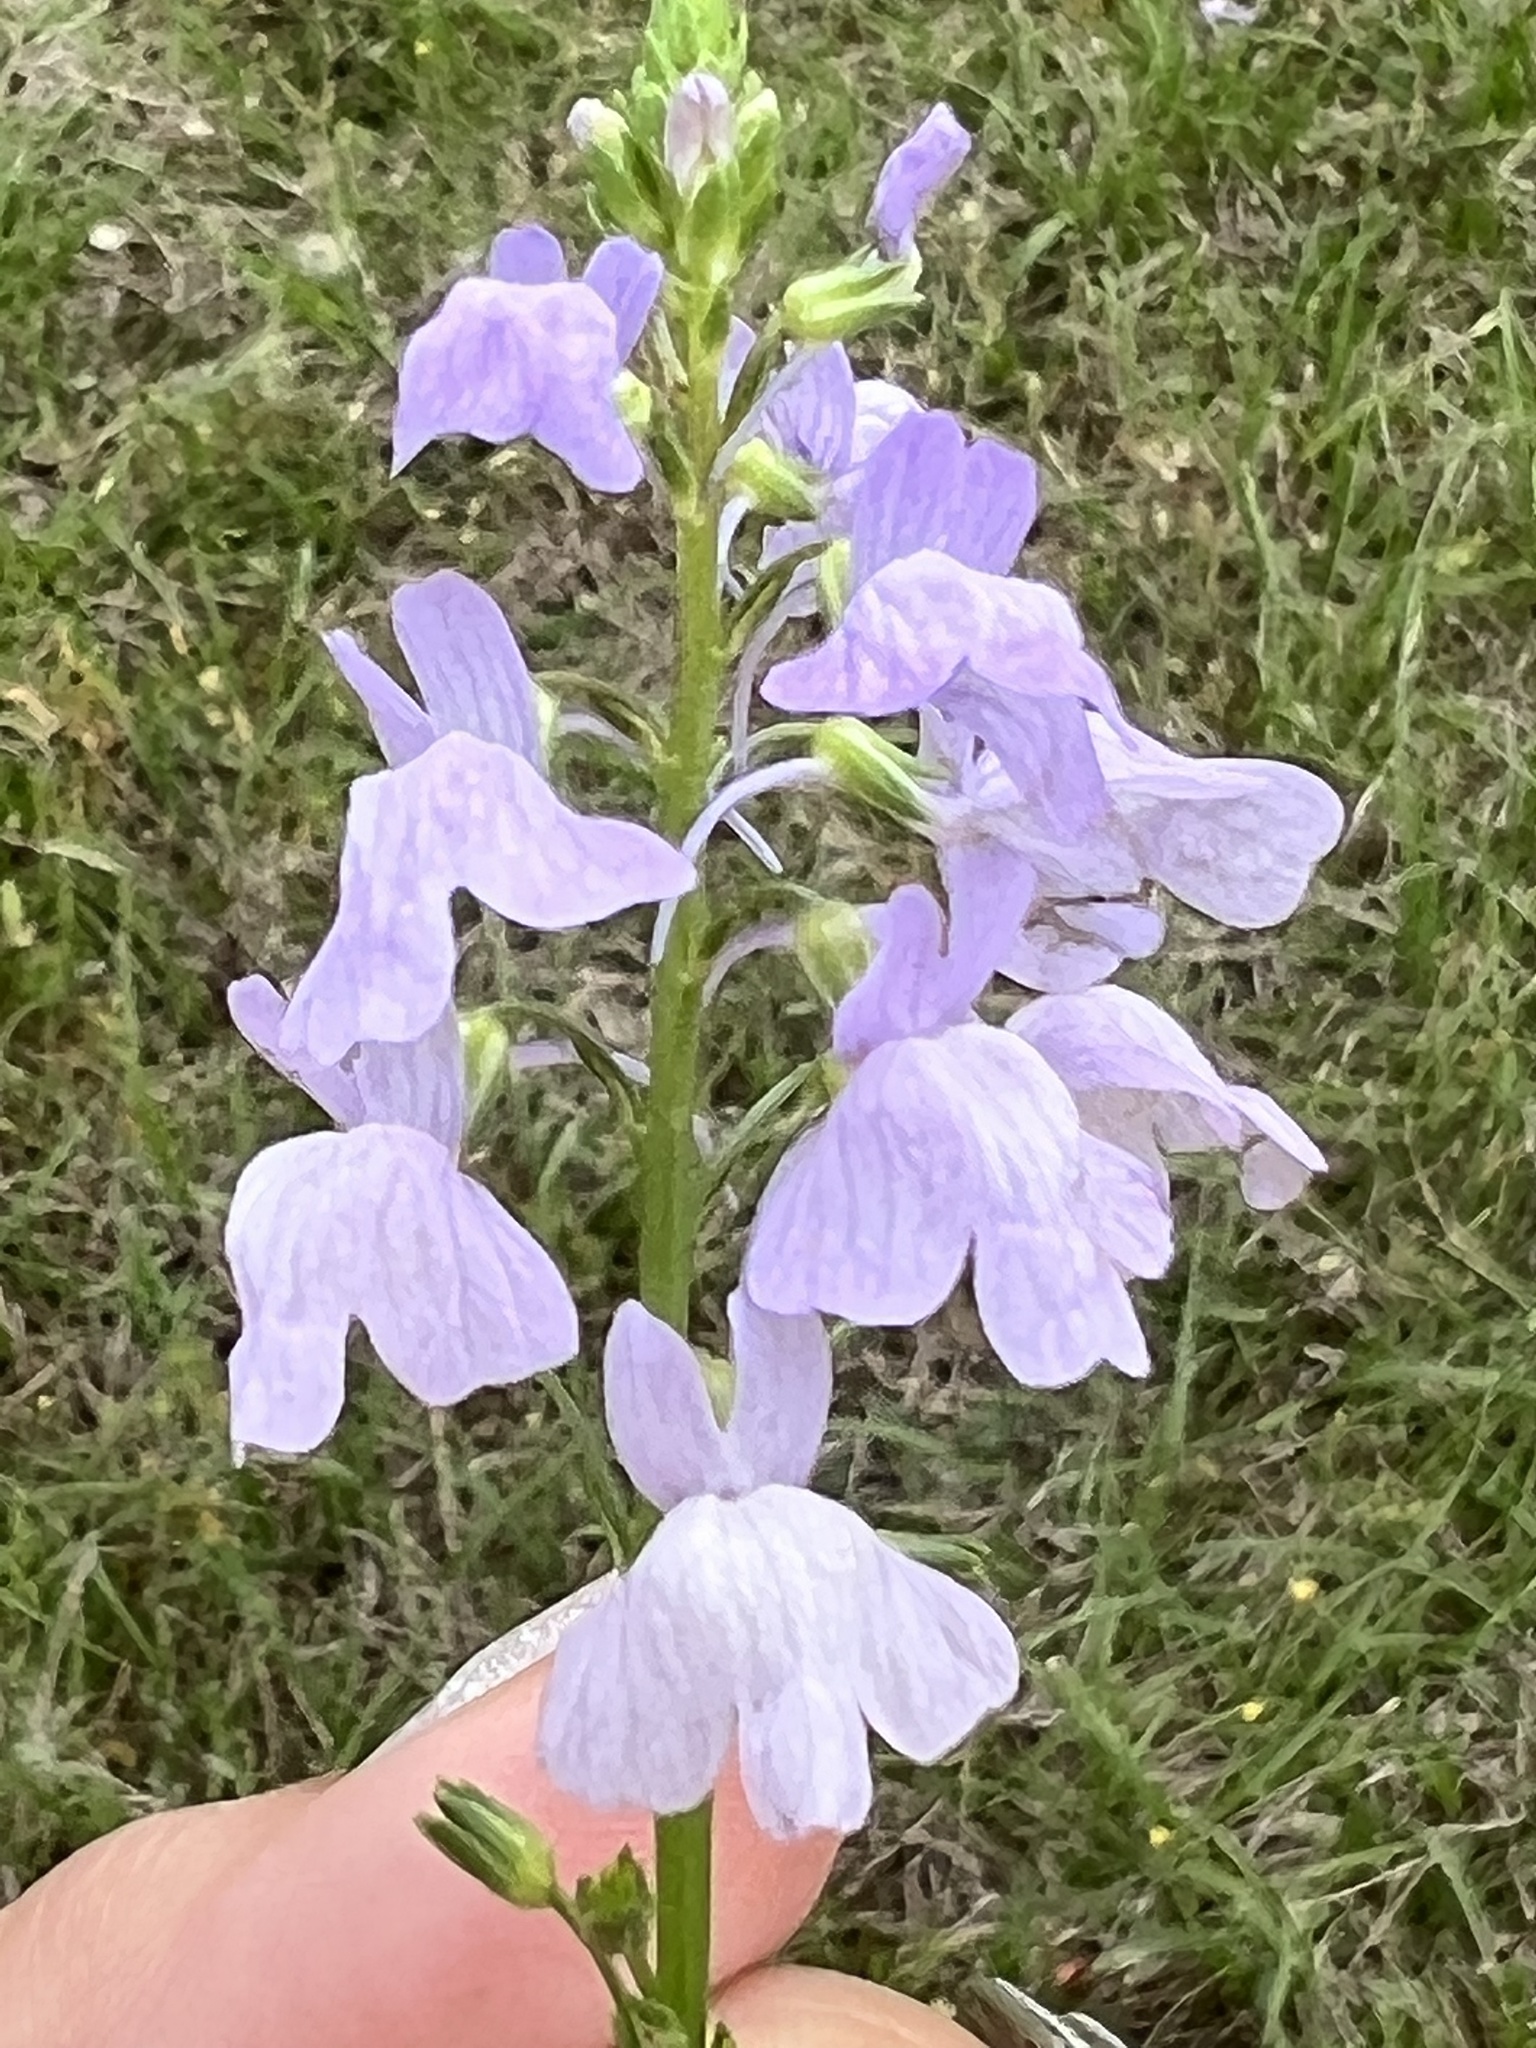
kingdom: Plantae
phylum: Tracheophyta
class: Magnoliopsida
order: Lamiales
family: Plantaginaceae
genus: Nuttallanthus
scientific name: Nuttallanthus texanus
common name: Texas toadflax
